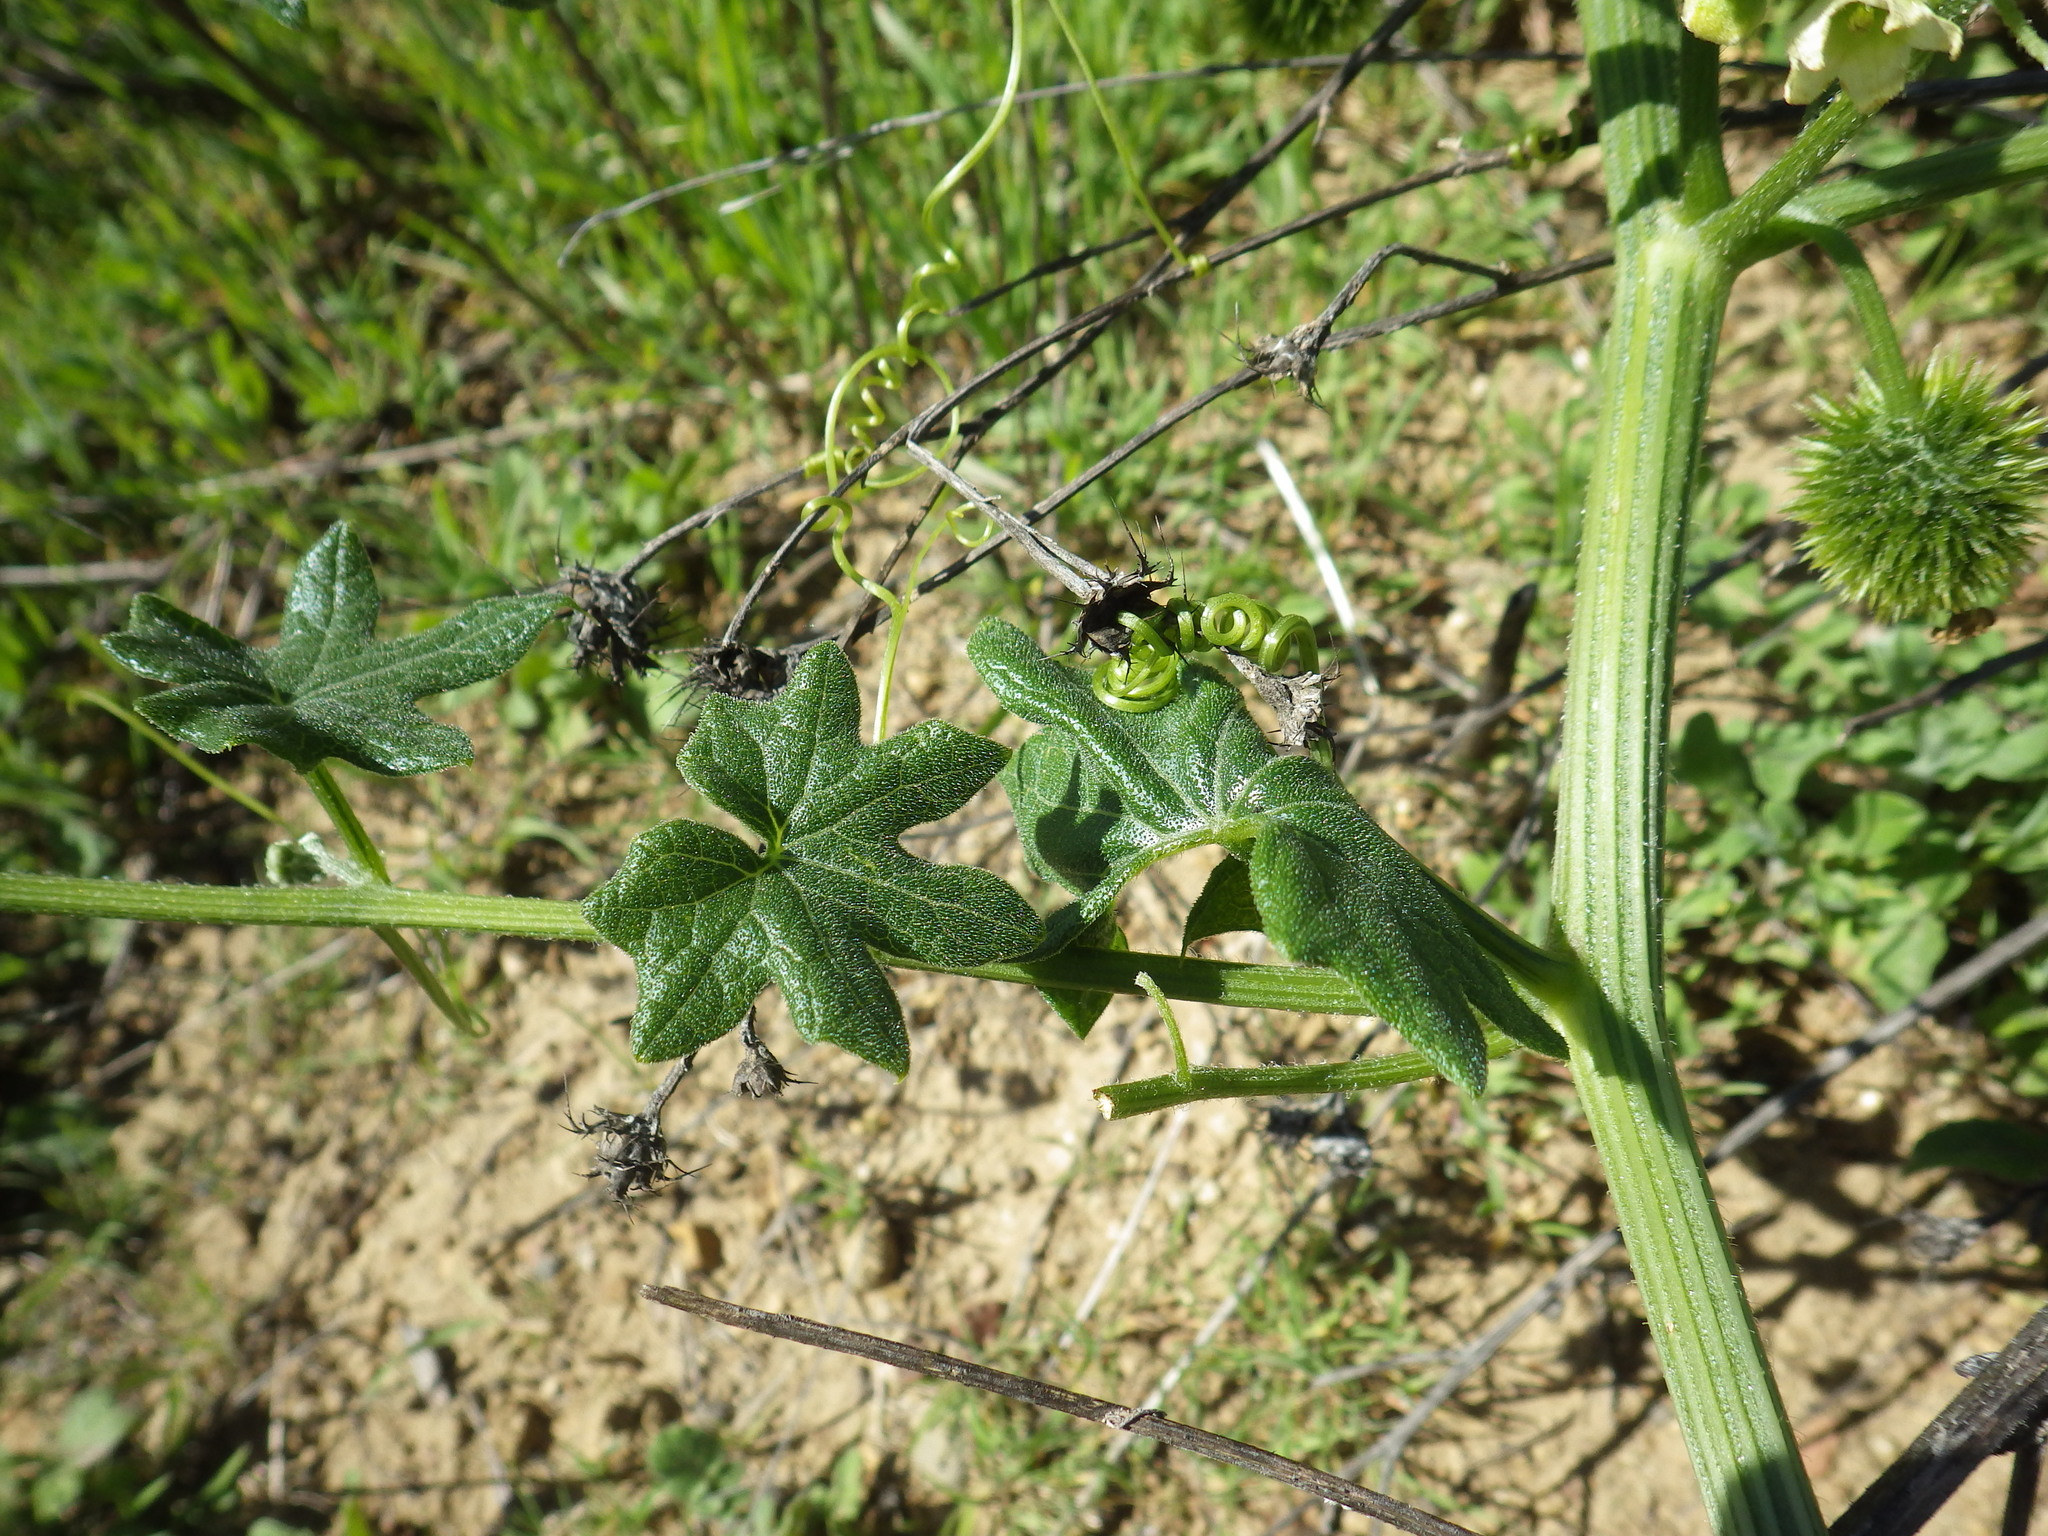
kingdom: Plantae
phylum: Tracheophyta
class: Magnoliopsida
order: Cucurbitales
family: Cucurbitaceae
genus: Marah
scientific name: Marah macrocarpa
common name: Cucamonga manroot
